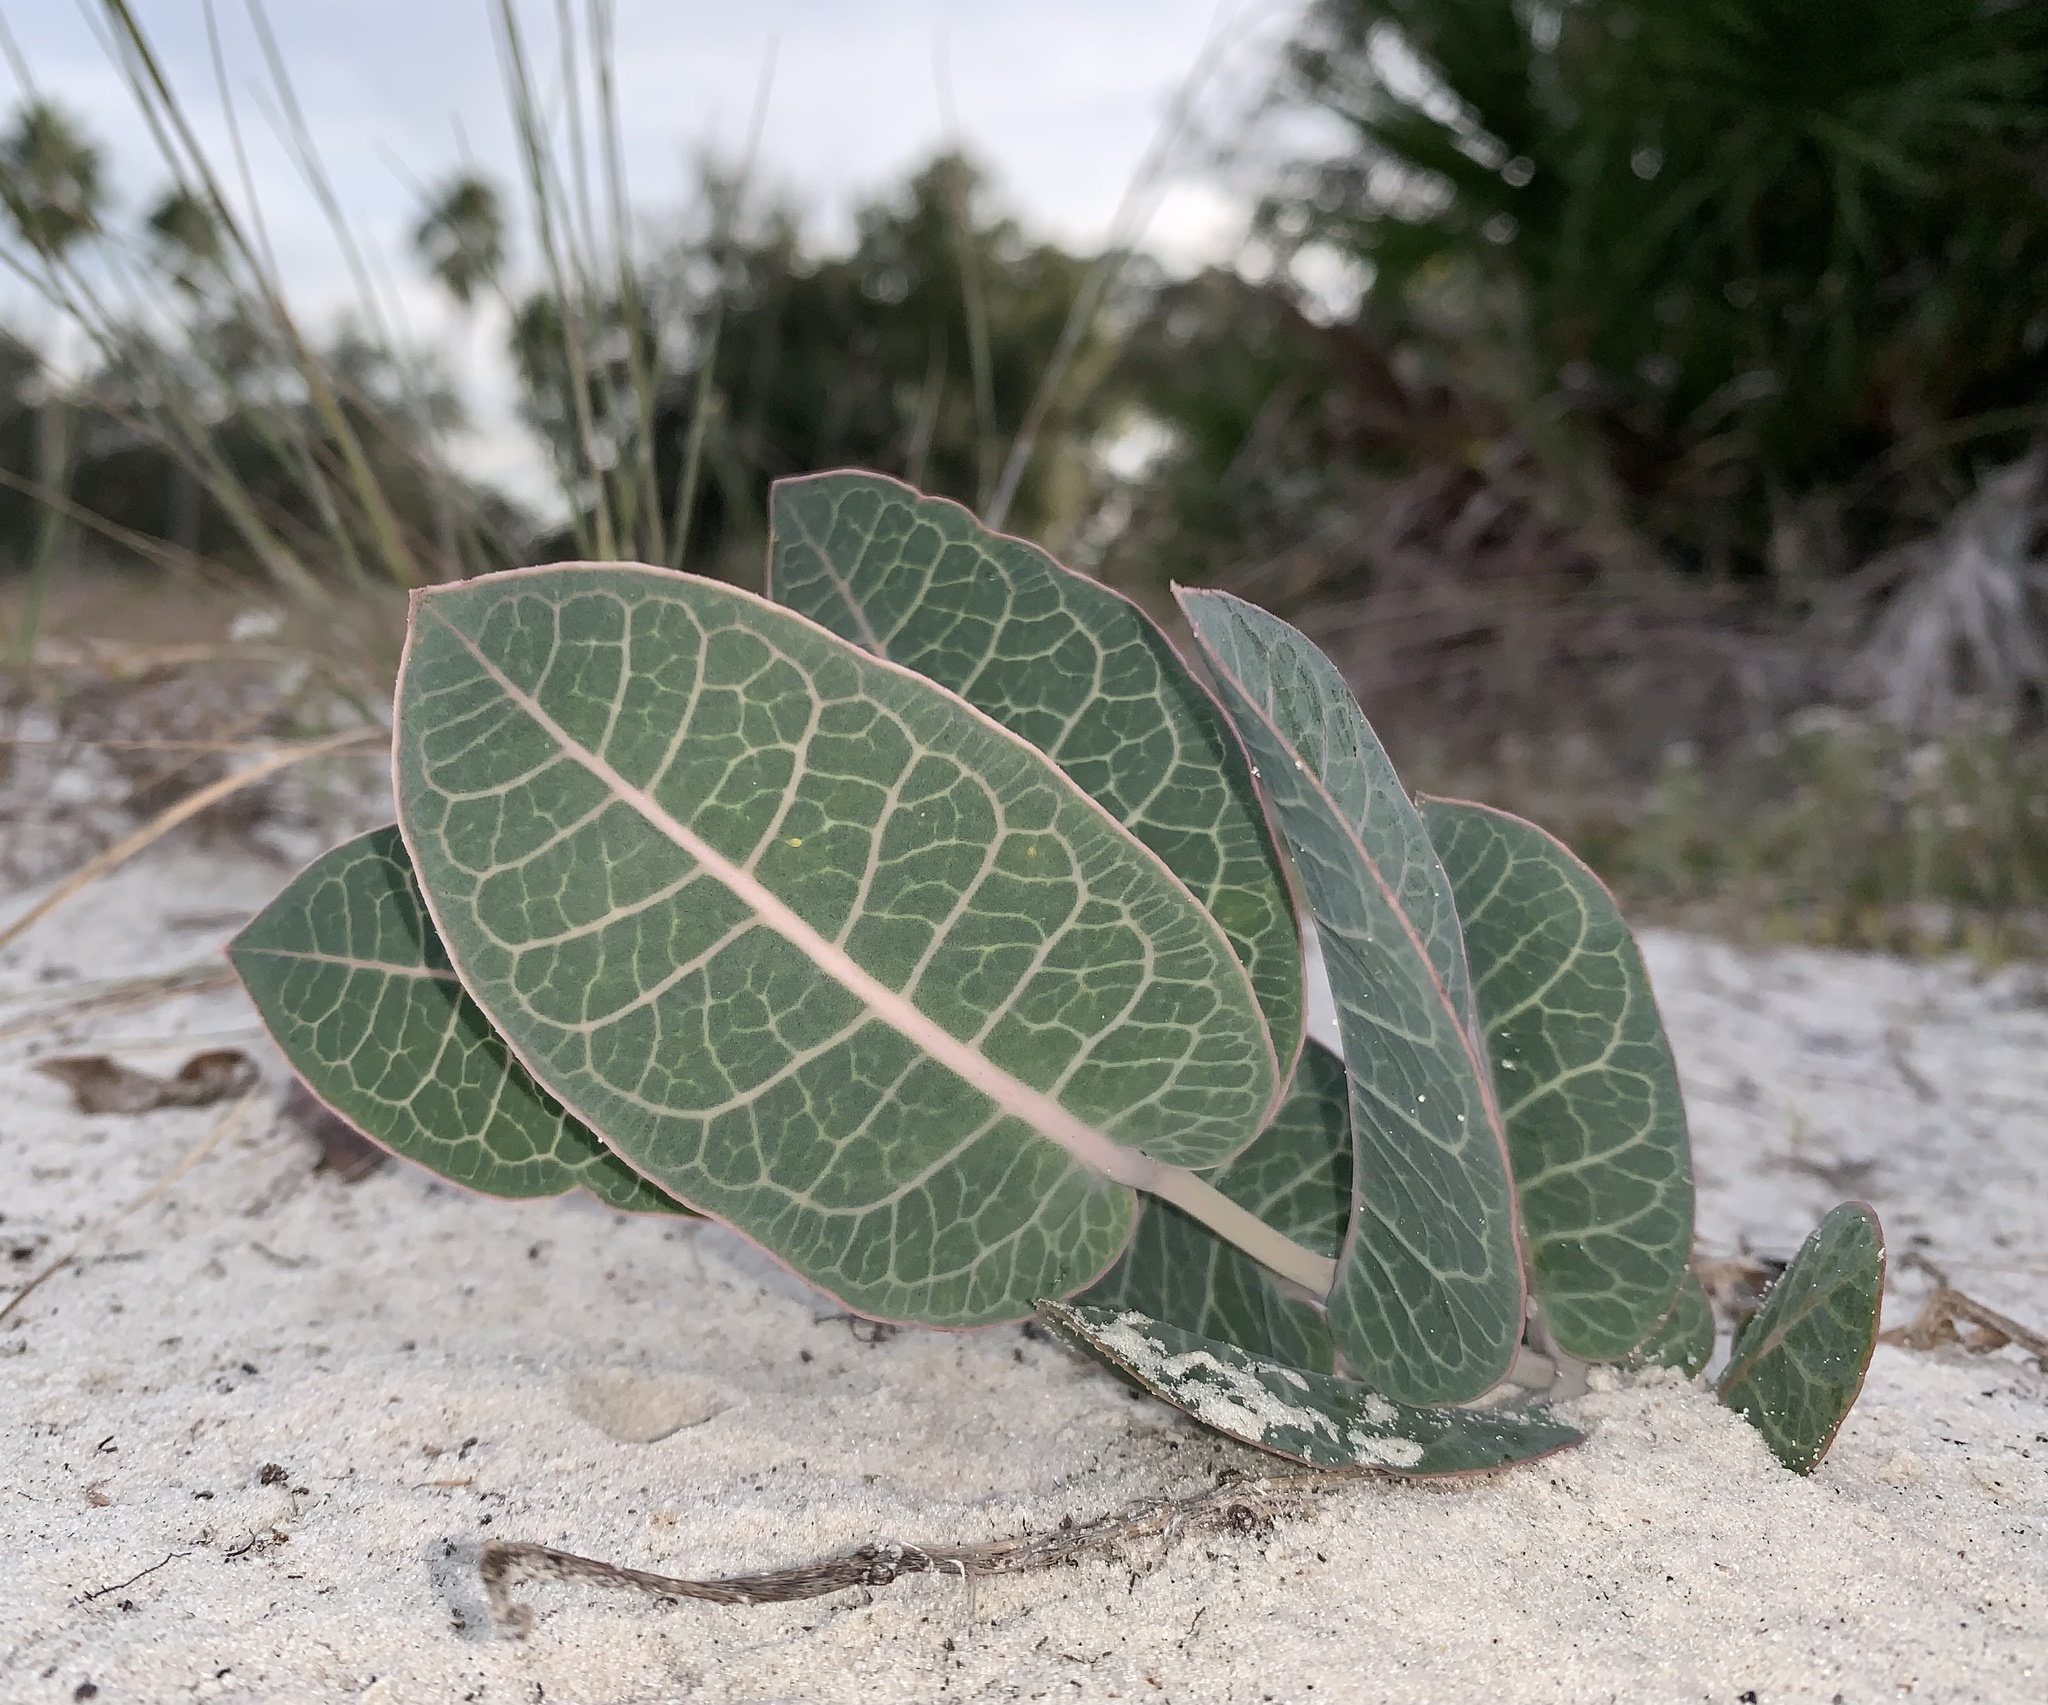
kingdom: Plantae
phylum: Tracheophyta
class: Magnoliopsida
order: Gentianales
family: Apocynaceae
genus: Asclepias
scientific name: Asclepias humistrata
